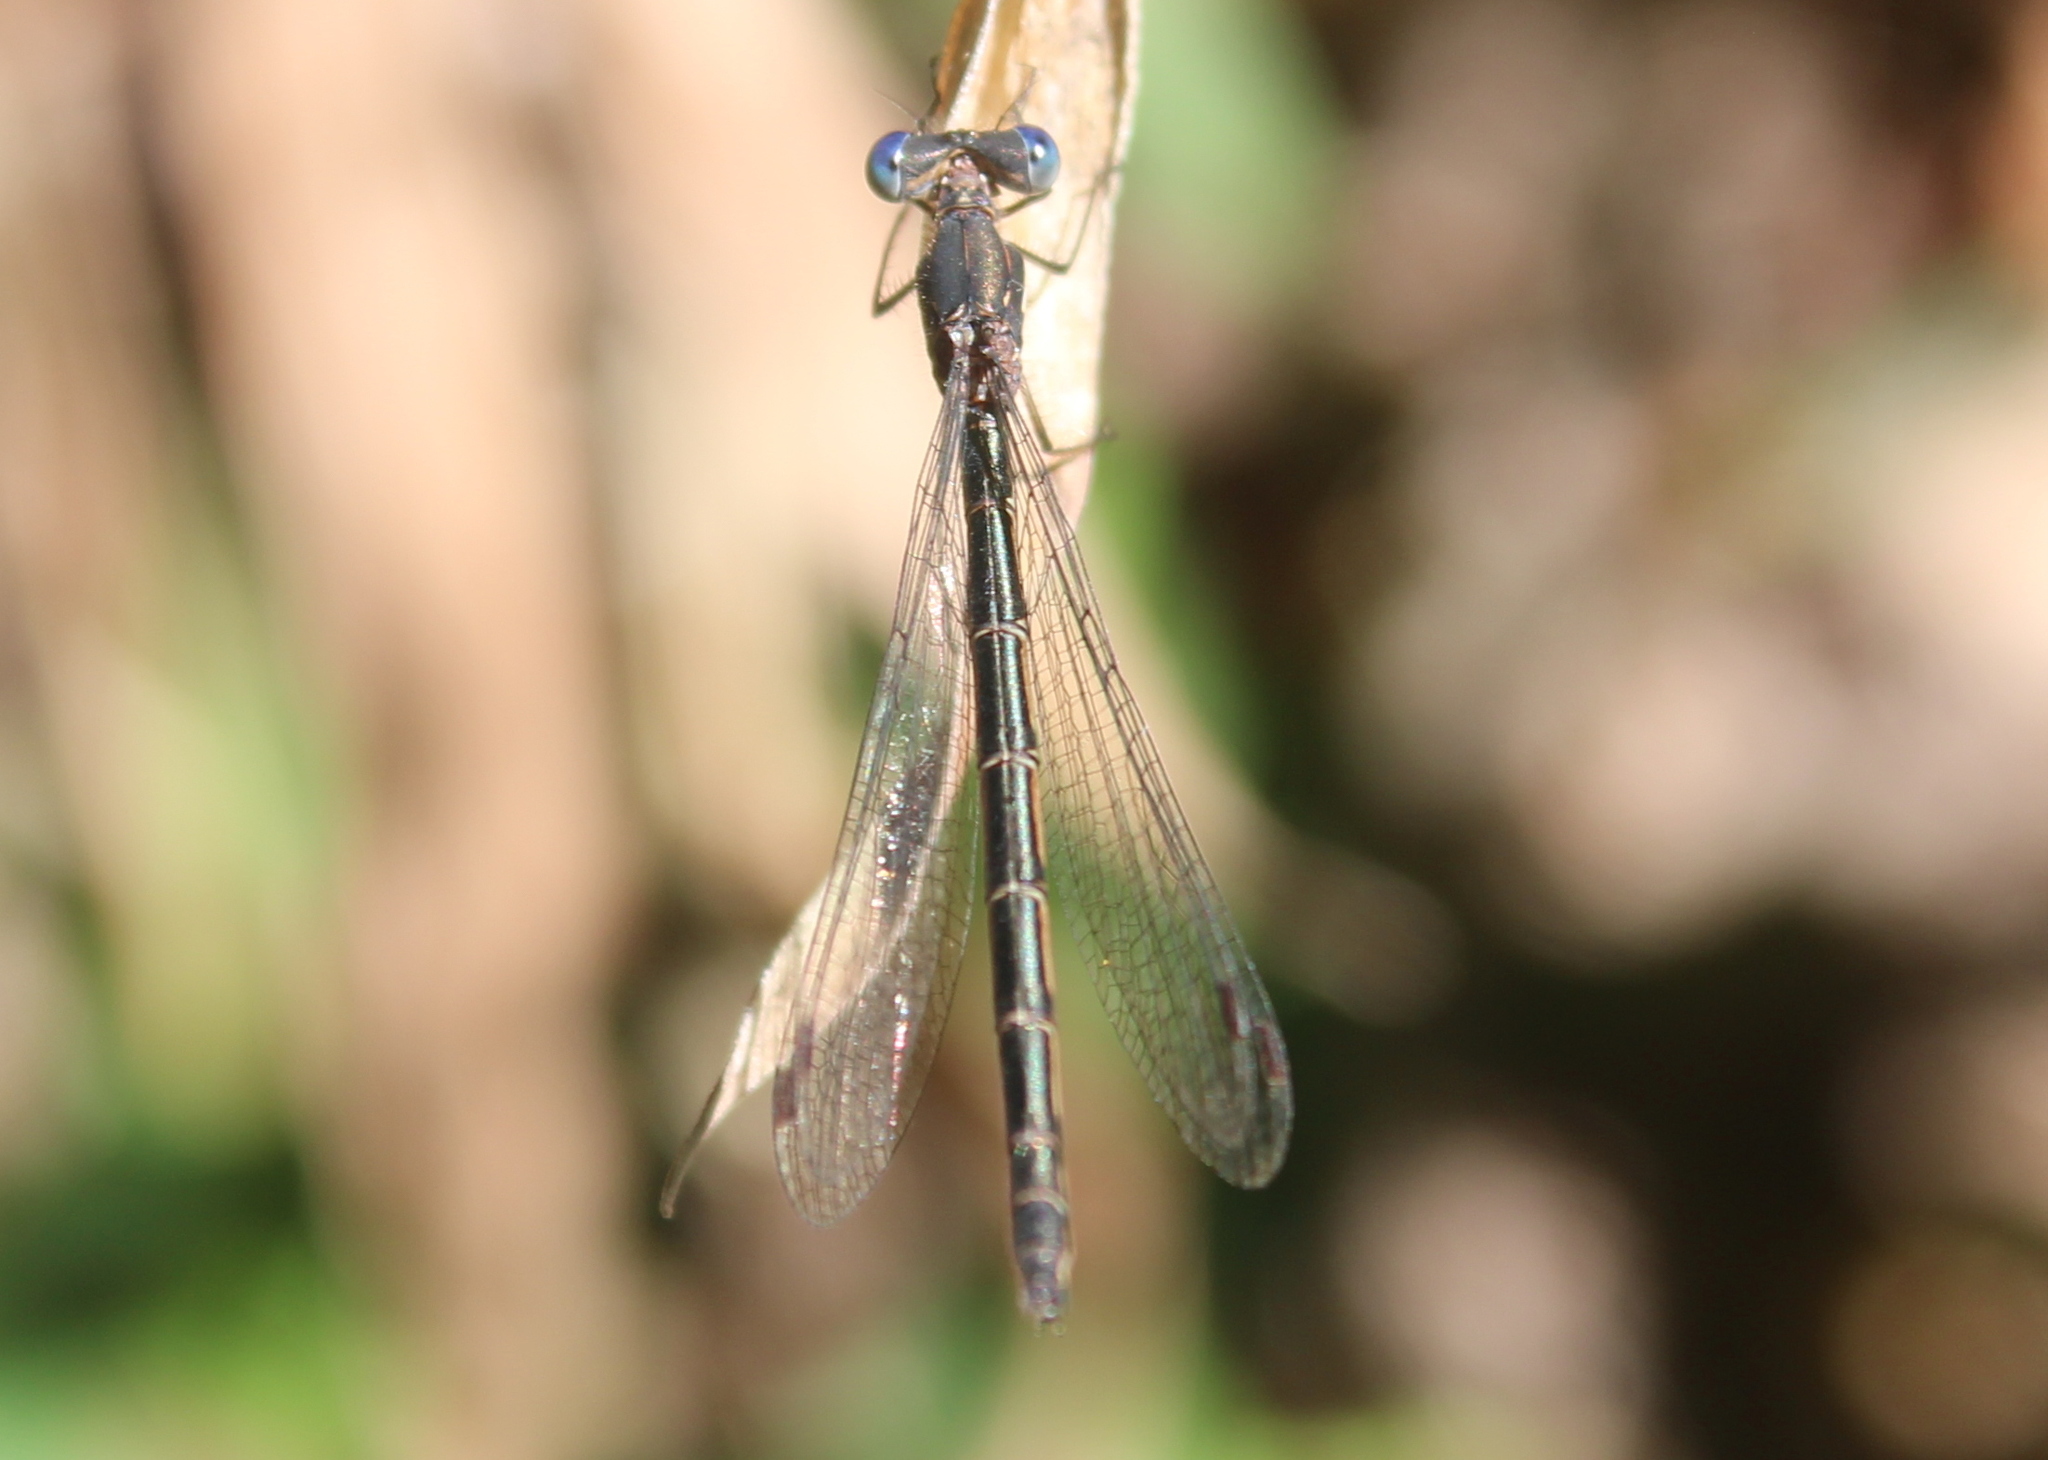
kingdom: Animalia
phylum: Arthropoda
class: Insecta
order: Odonata
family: Lestidae
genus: Lestes
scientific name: Lestes congener
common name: Spotted spreadwing
